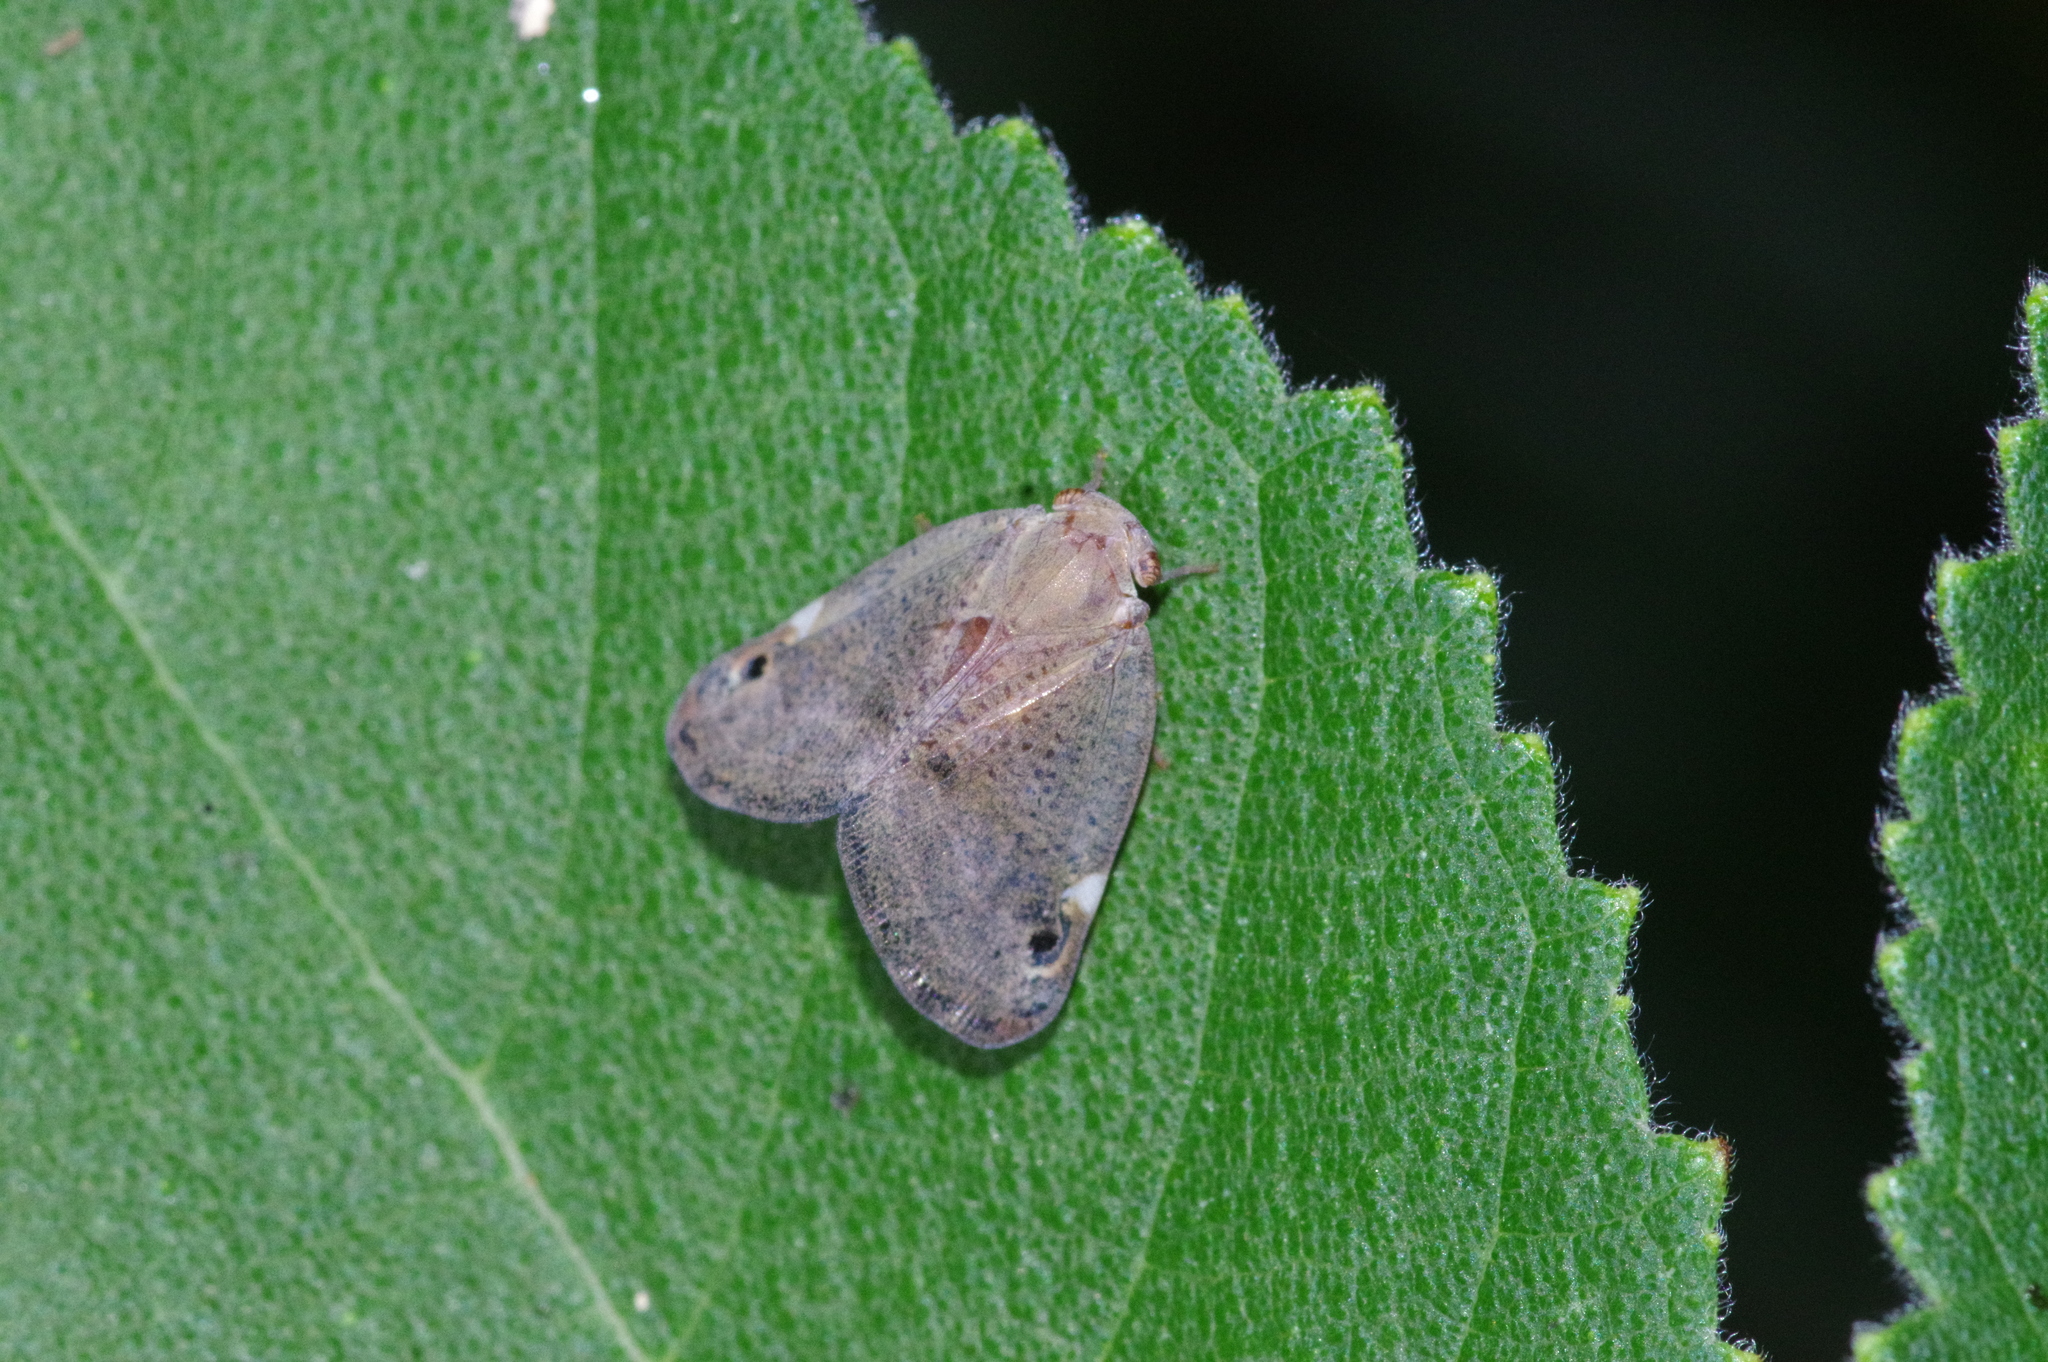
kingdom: Animalia
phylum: Arthropoda
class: Insecta
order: Hemiptera
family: Ricaniidae
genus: Ricania
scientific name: Ricania binotata
